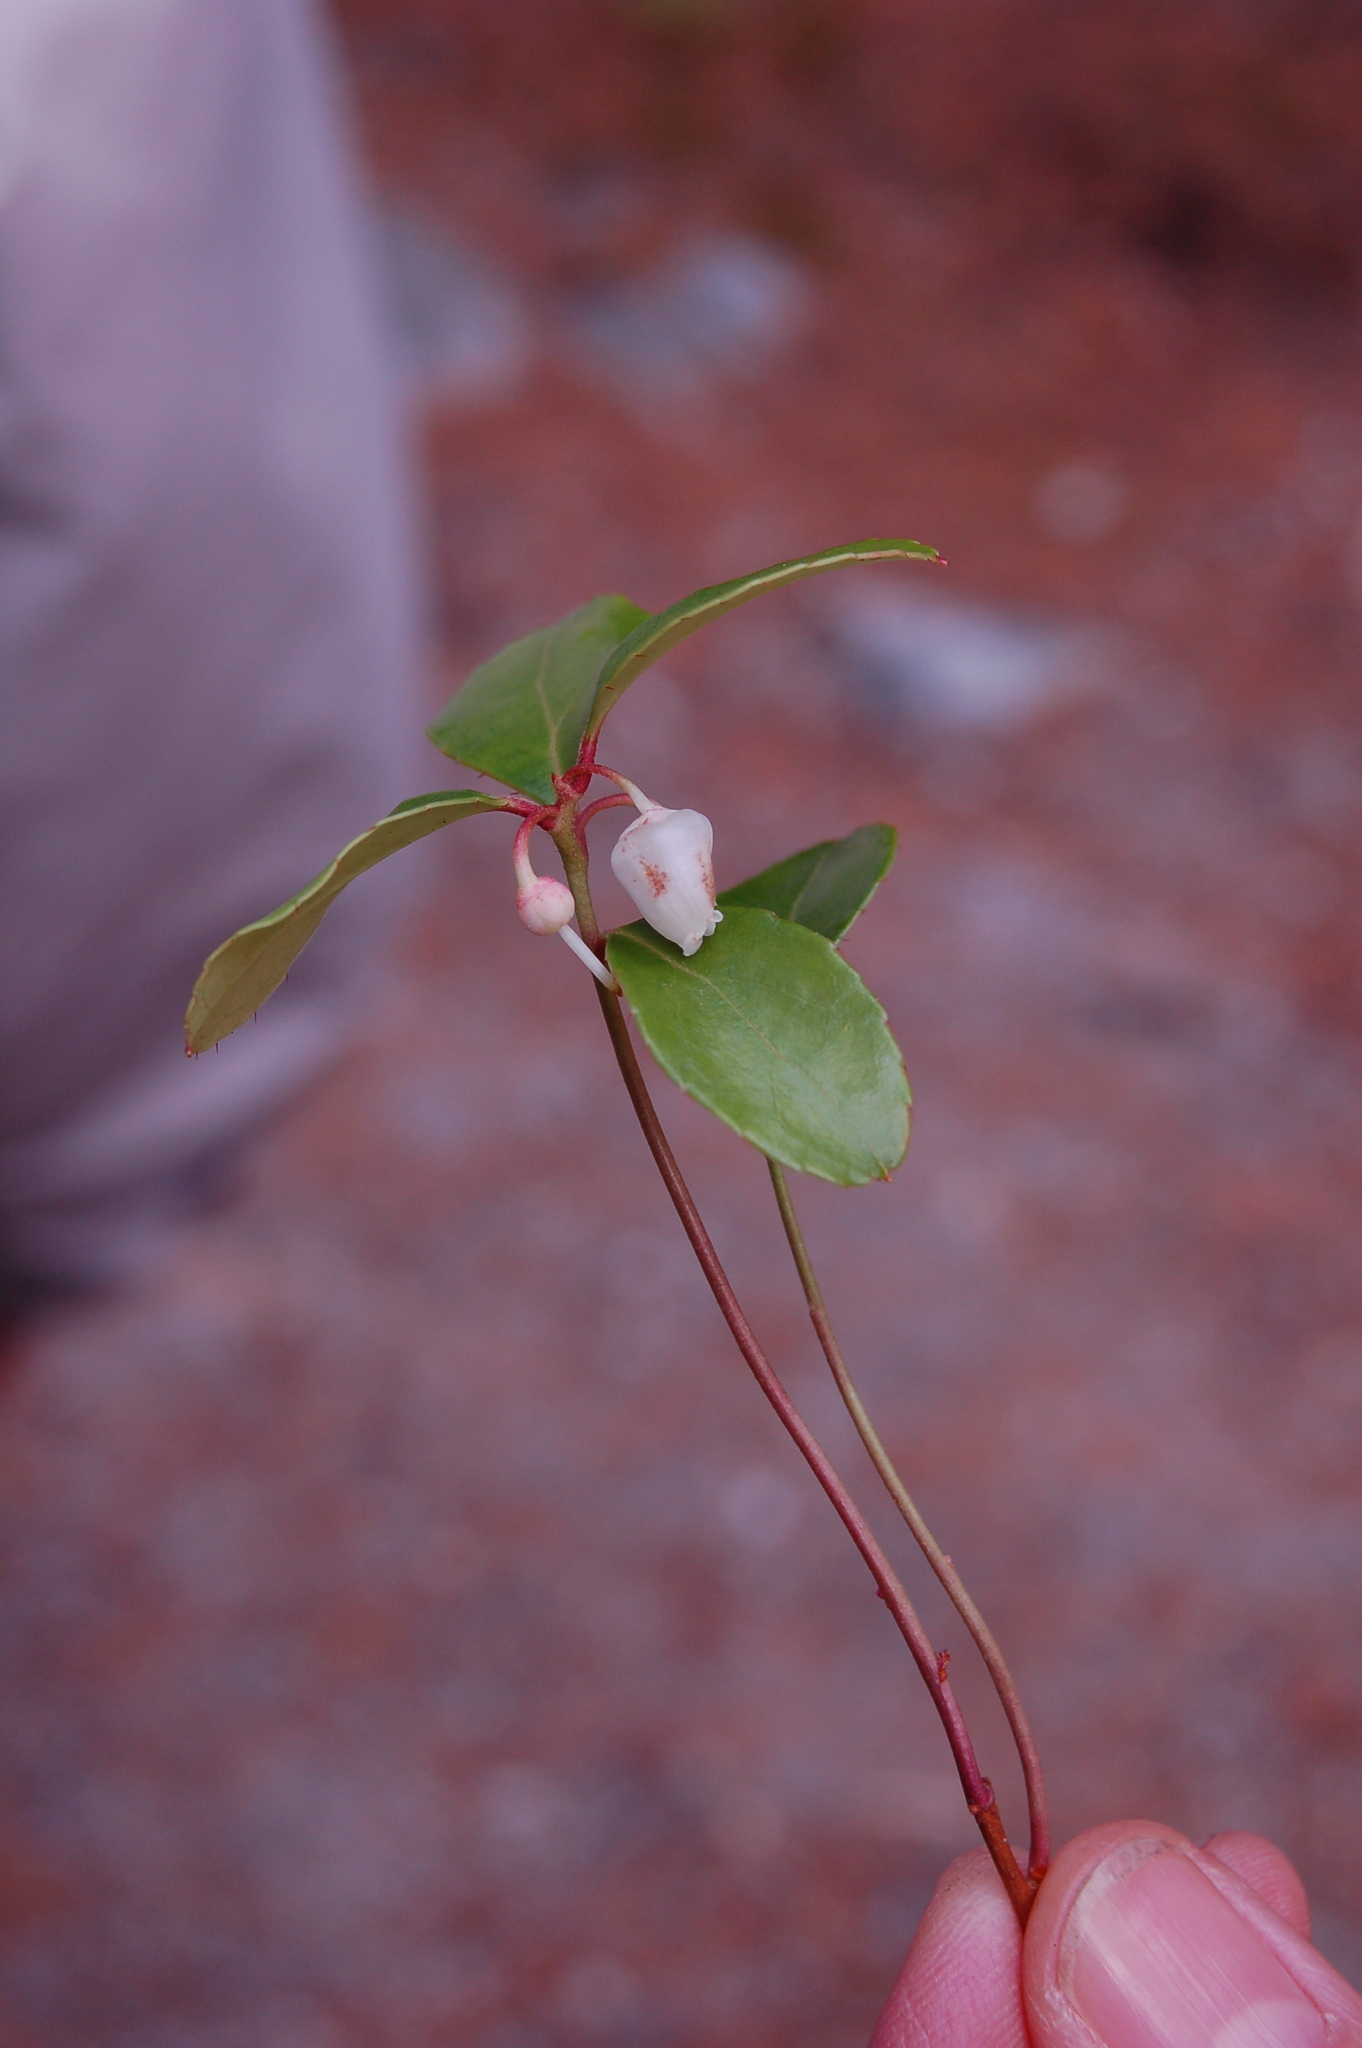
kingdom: Plantae
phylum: Tracheophyta
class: Magnoliopsida
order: Ericales
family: Ericaceae
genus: Gaultheria
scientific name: Gaultheria procumbens
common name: Checkerberry
